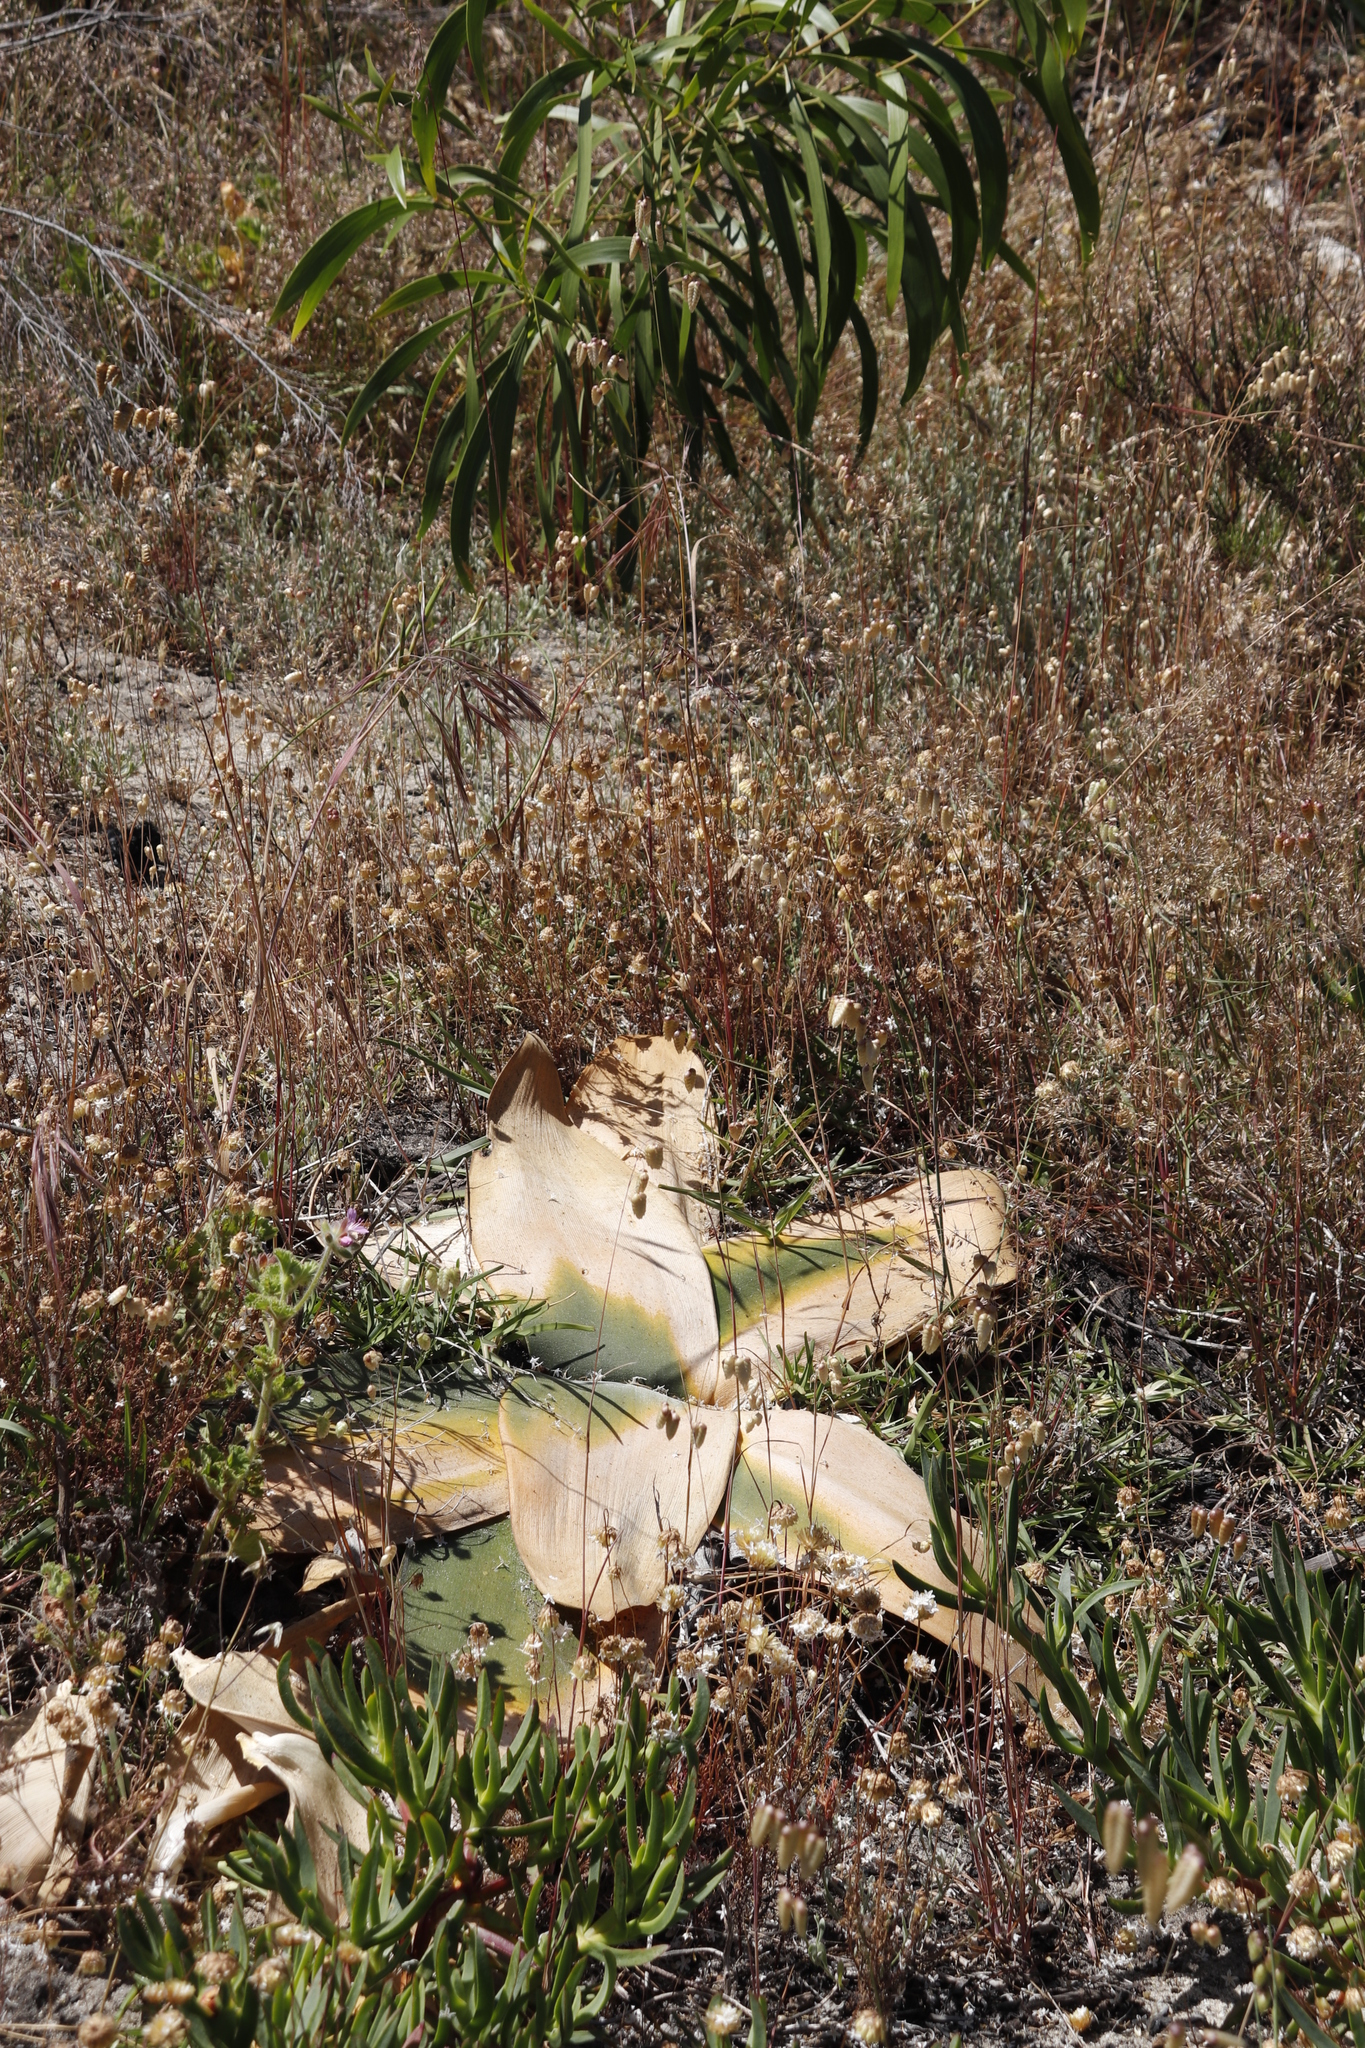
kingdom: Plantae
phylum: Tracheophyta
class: Liliopsida
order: Asparagales
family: Amaryllidaceae
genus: Brunsvigia
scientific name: Brunsvigia orientalis
